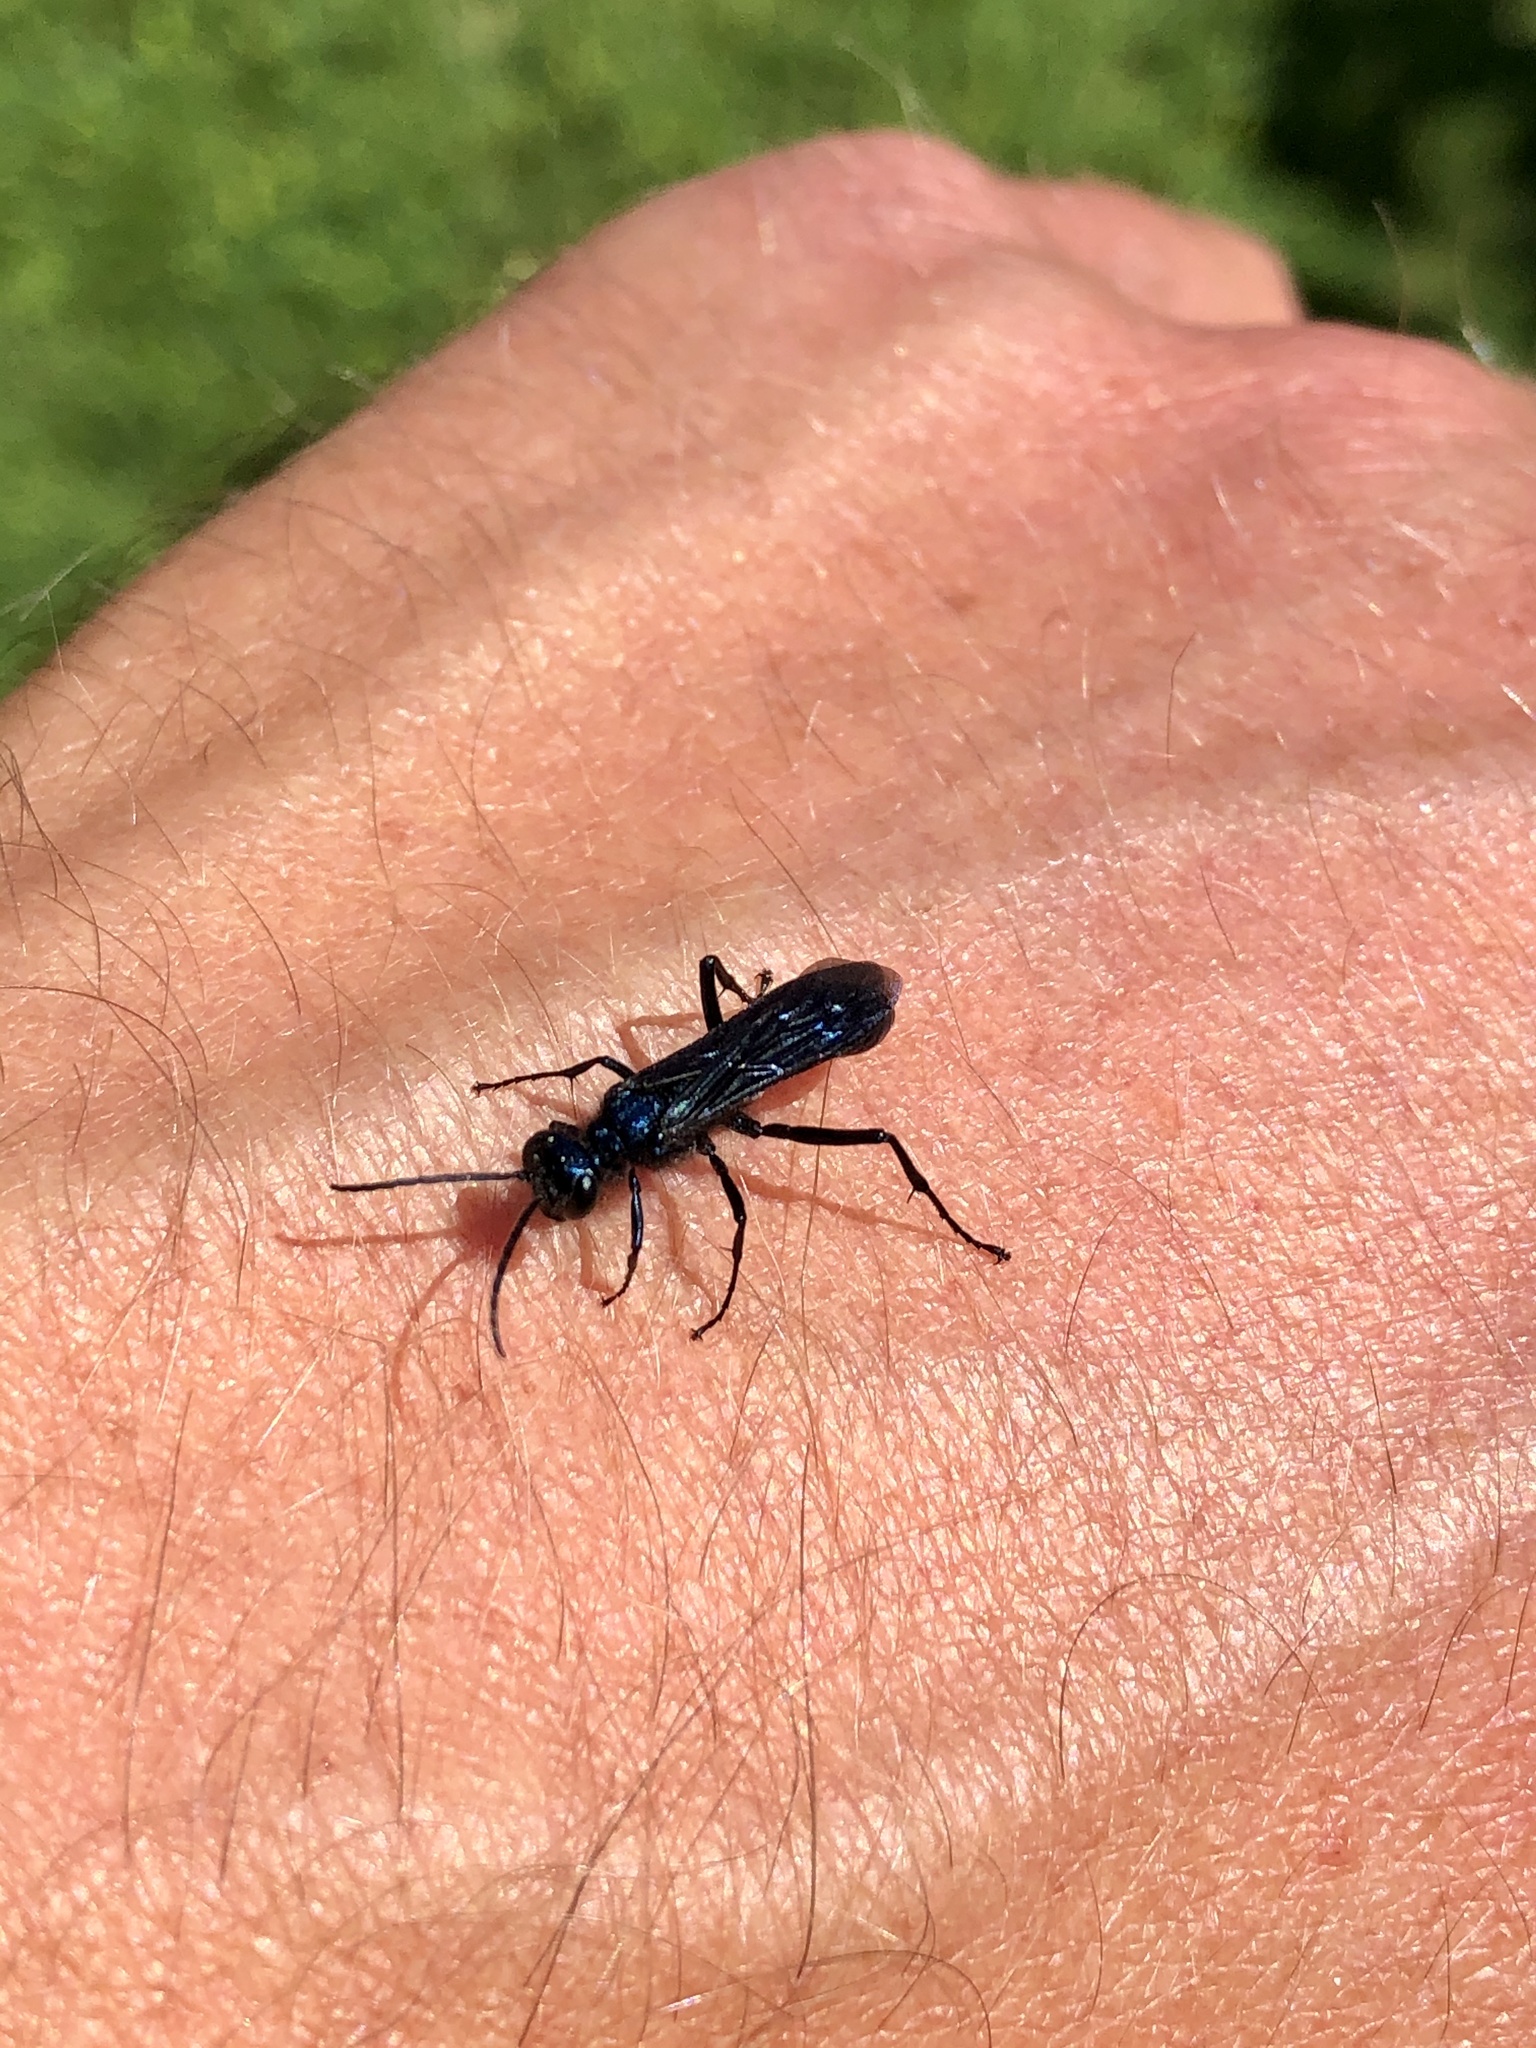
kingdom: Animalia
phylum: Arthropoda
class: Insecta
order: Hymenoptera
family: Sphecidae
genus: Chalybion
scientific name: Chalybion californicum
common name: Mud dauber
